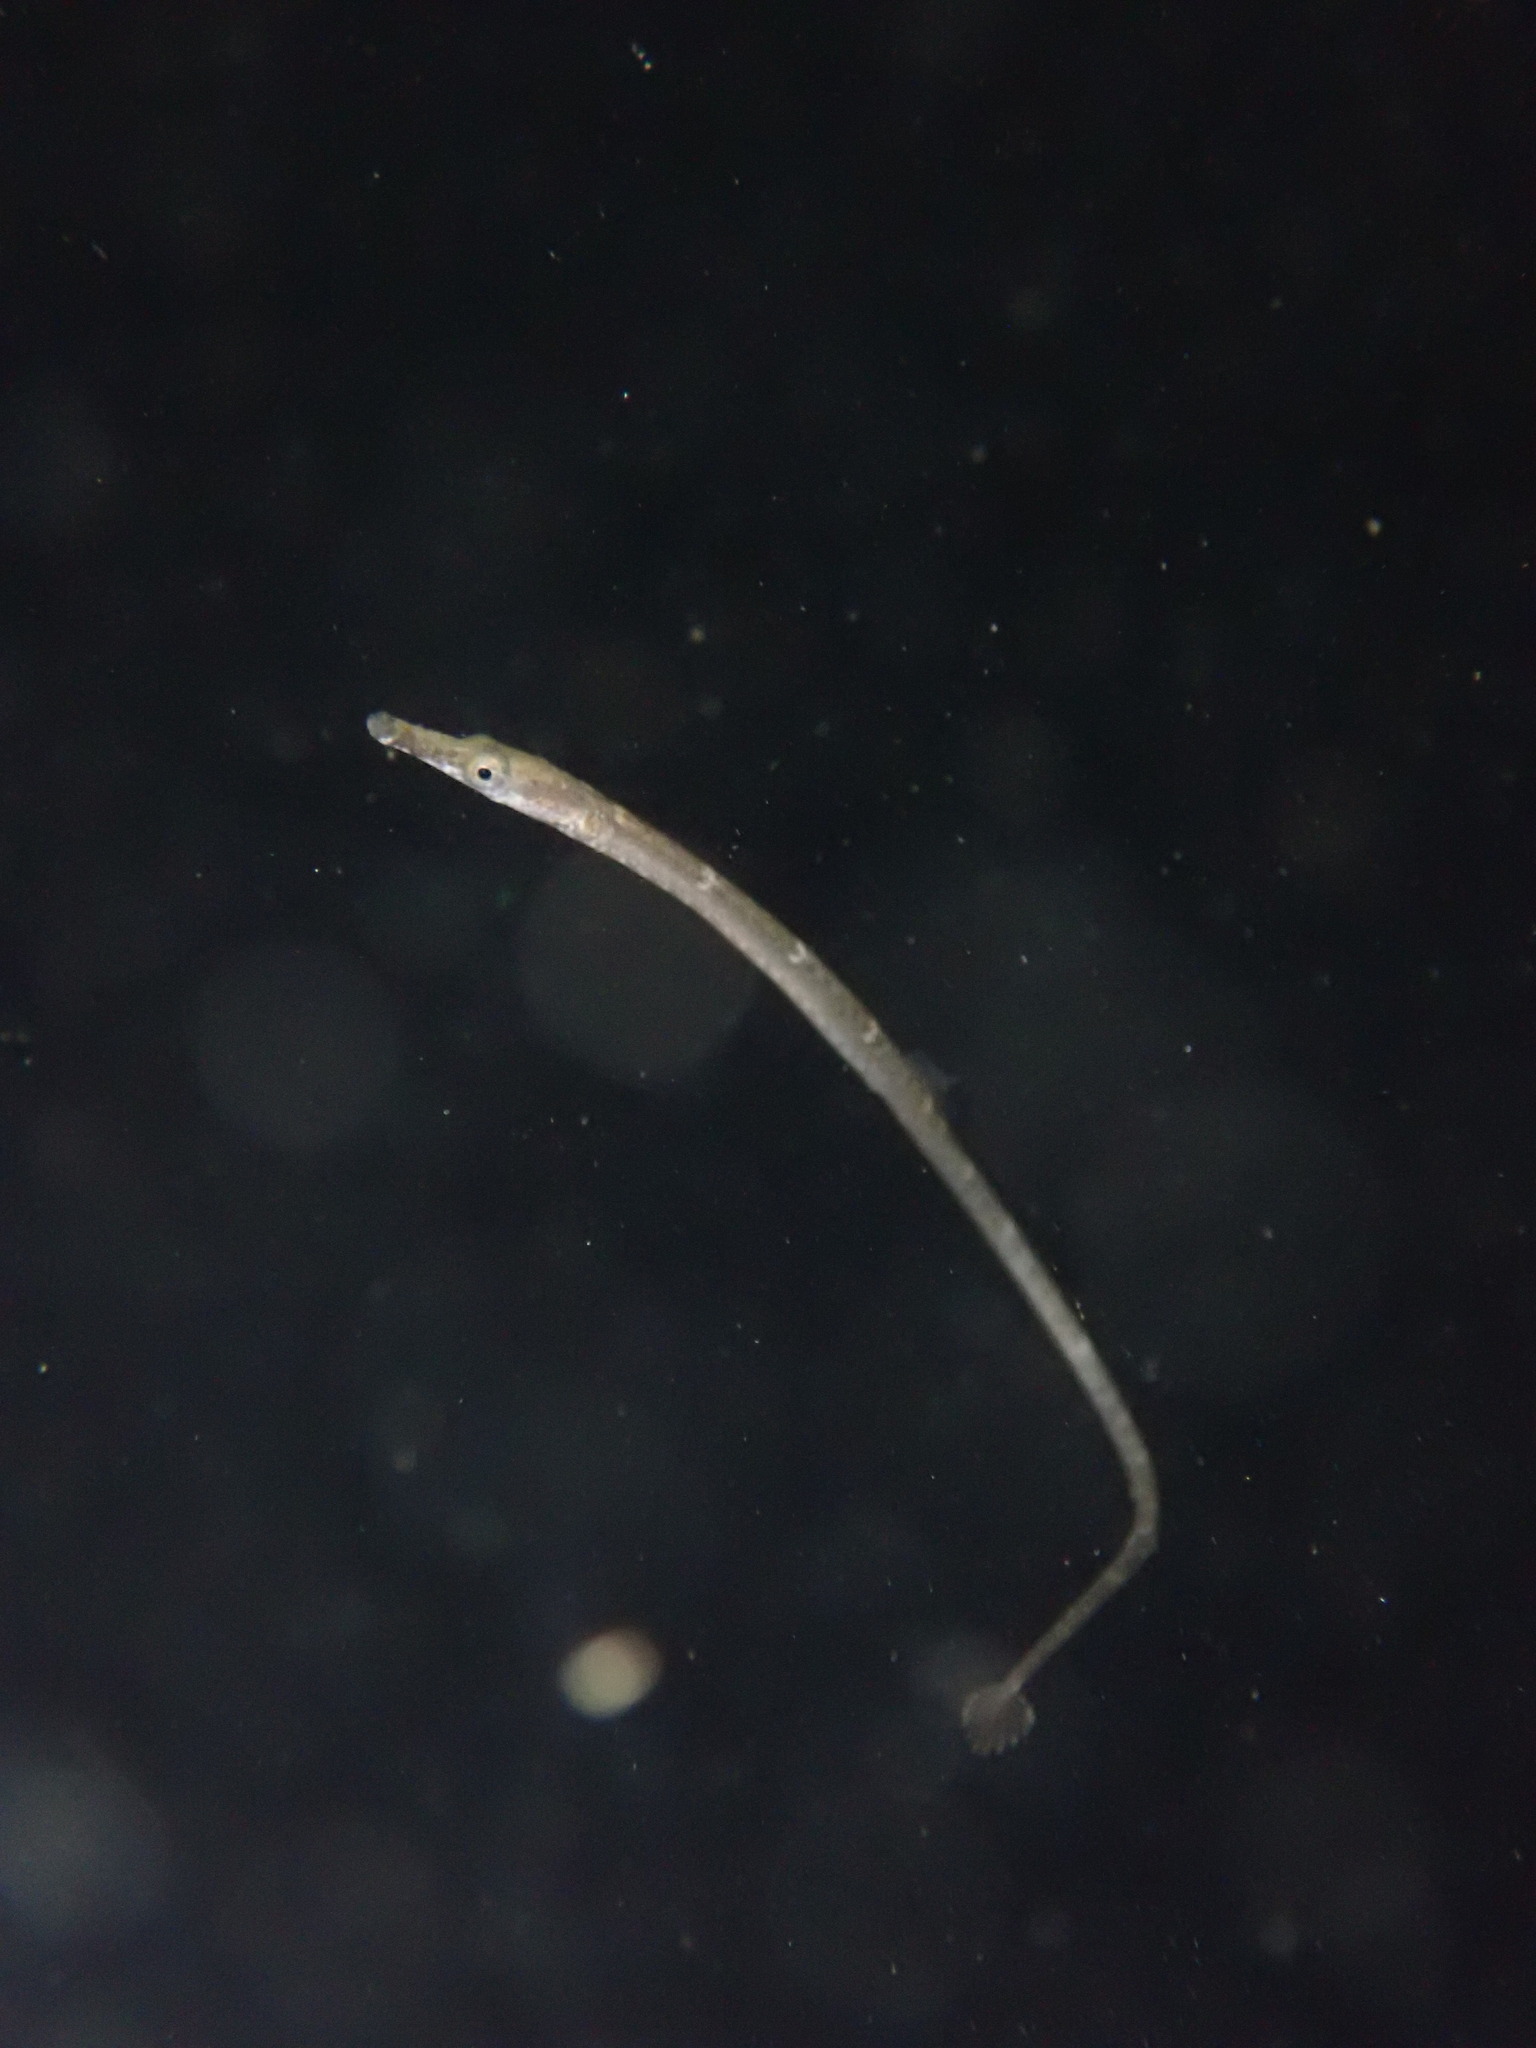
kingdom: Animalia
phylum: Chordata
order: Syngnathiformes
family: Syngnathidae
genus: Syngnathus
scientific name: Syngnathus californiensis
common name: Great pipefish
